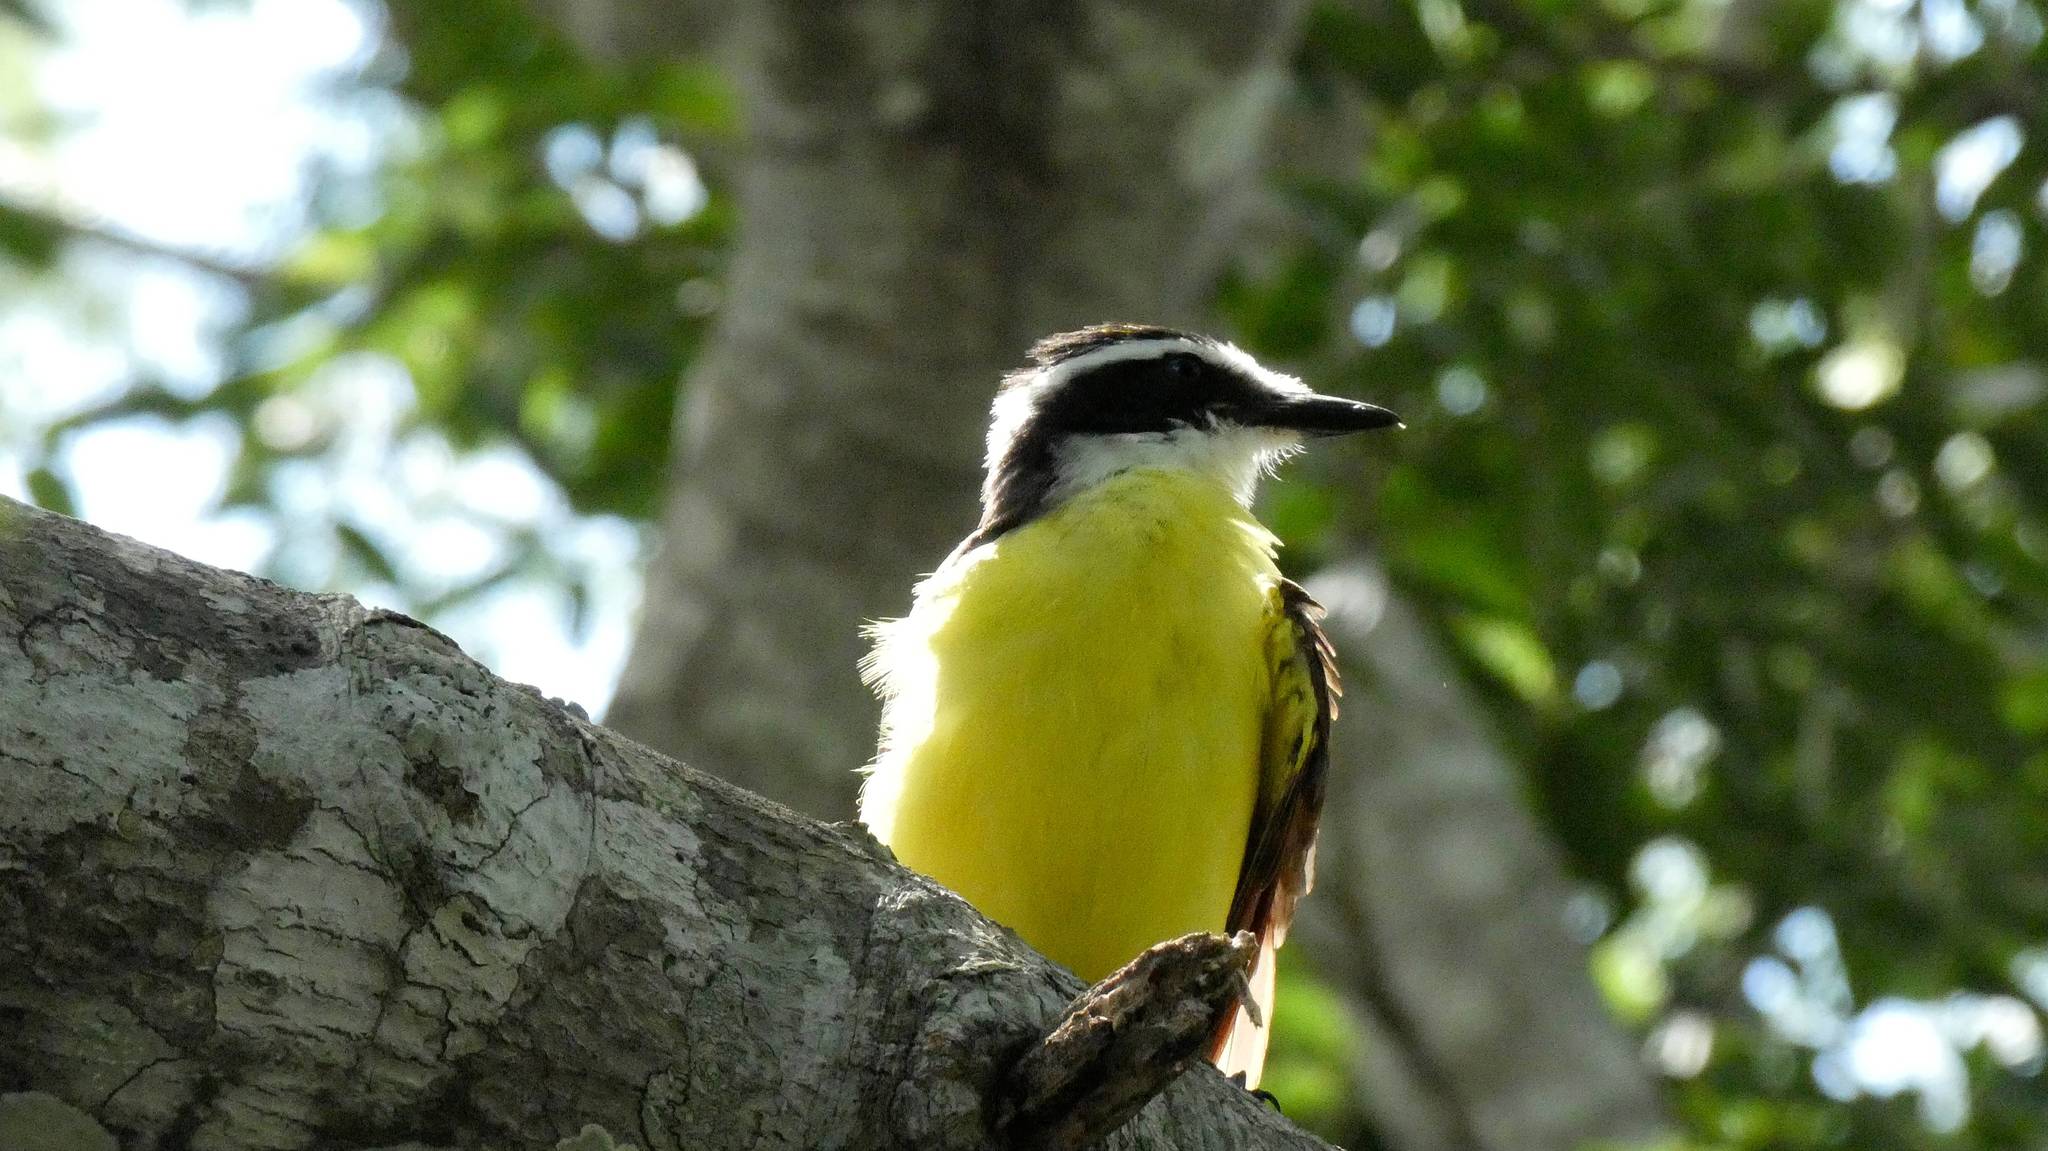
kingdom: Animalia
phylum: Chordata
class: Aves
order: Passeriformes
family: Tyrannidae
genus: Pitangus
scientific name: Pitangus sulphuratus
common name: Great kiskadee
